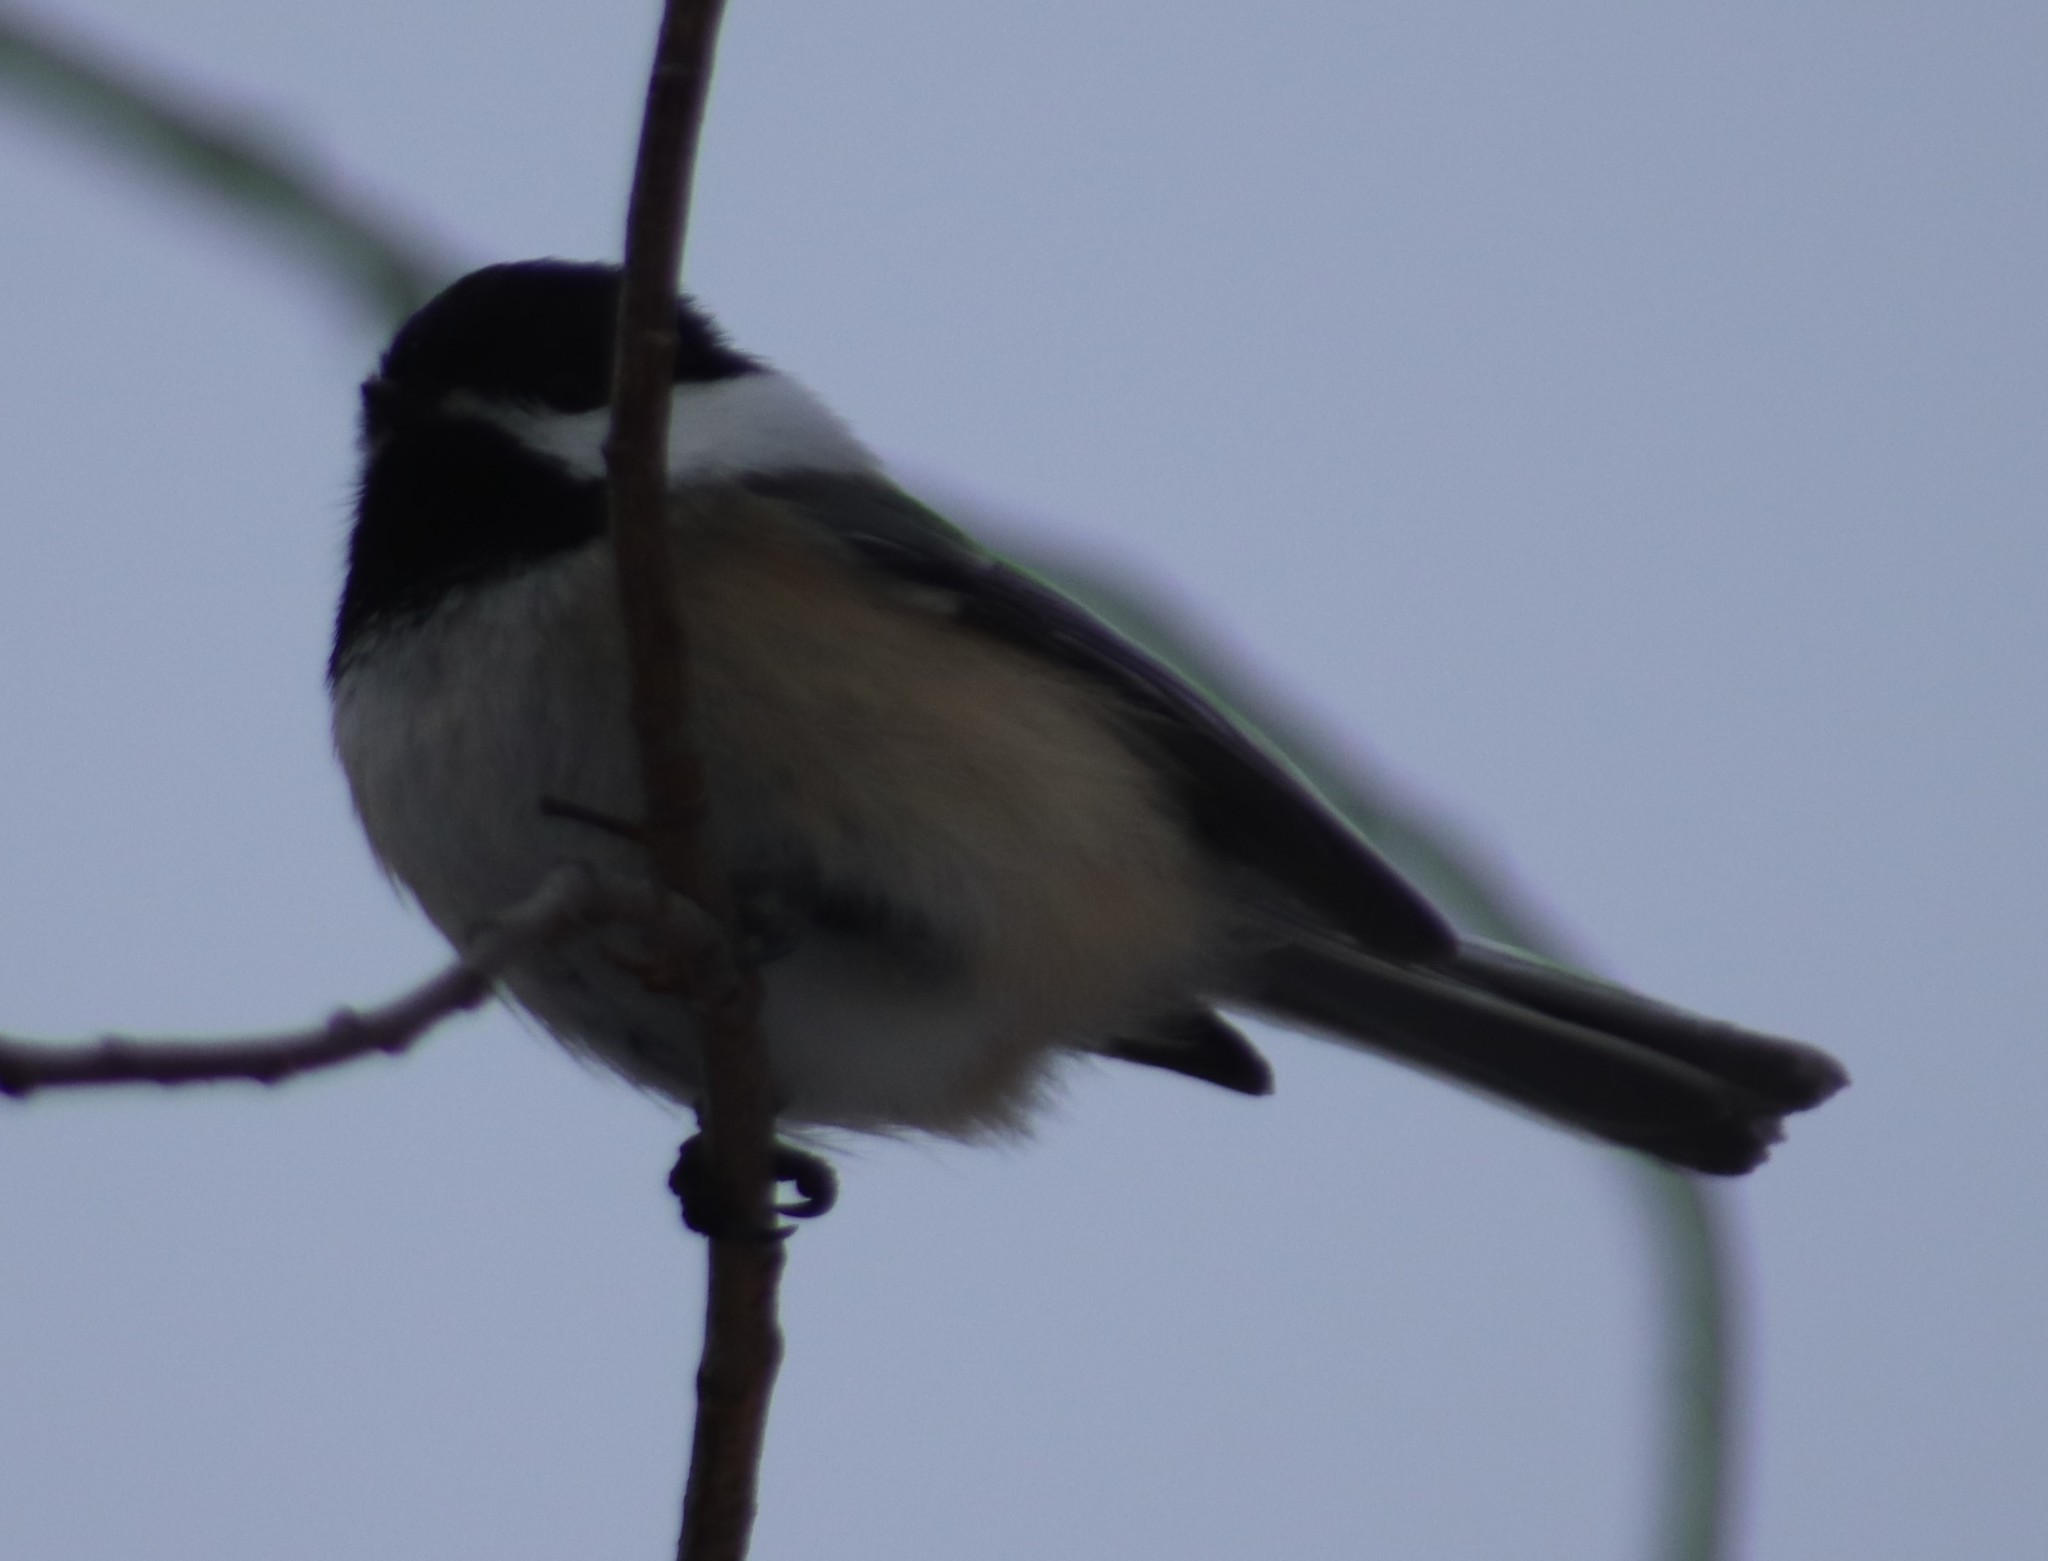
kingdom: Animalia
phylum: Chordata
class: Aves
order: Passeriformes
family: Paridae
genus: Poecile
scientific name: Poecile atricapillus
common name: Black-capped chickadee
